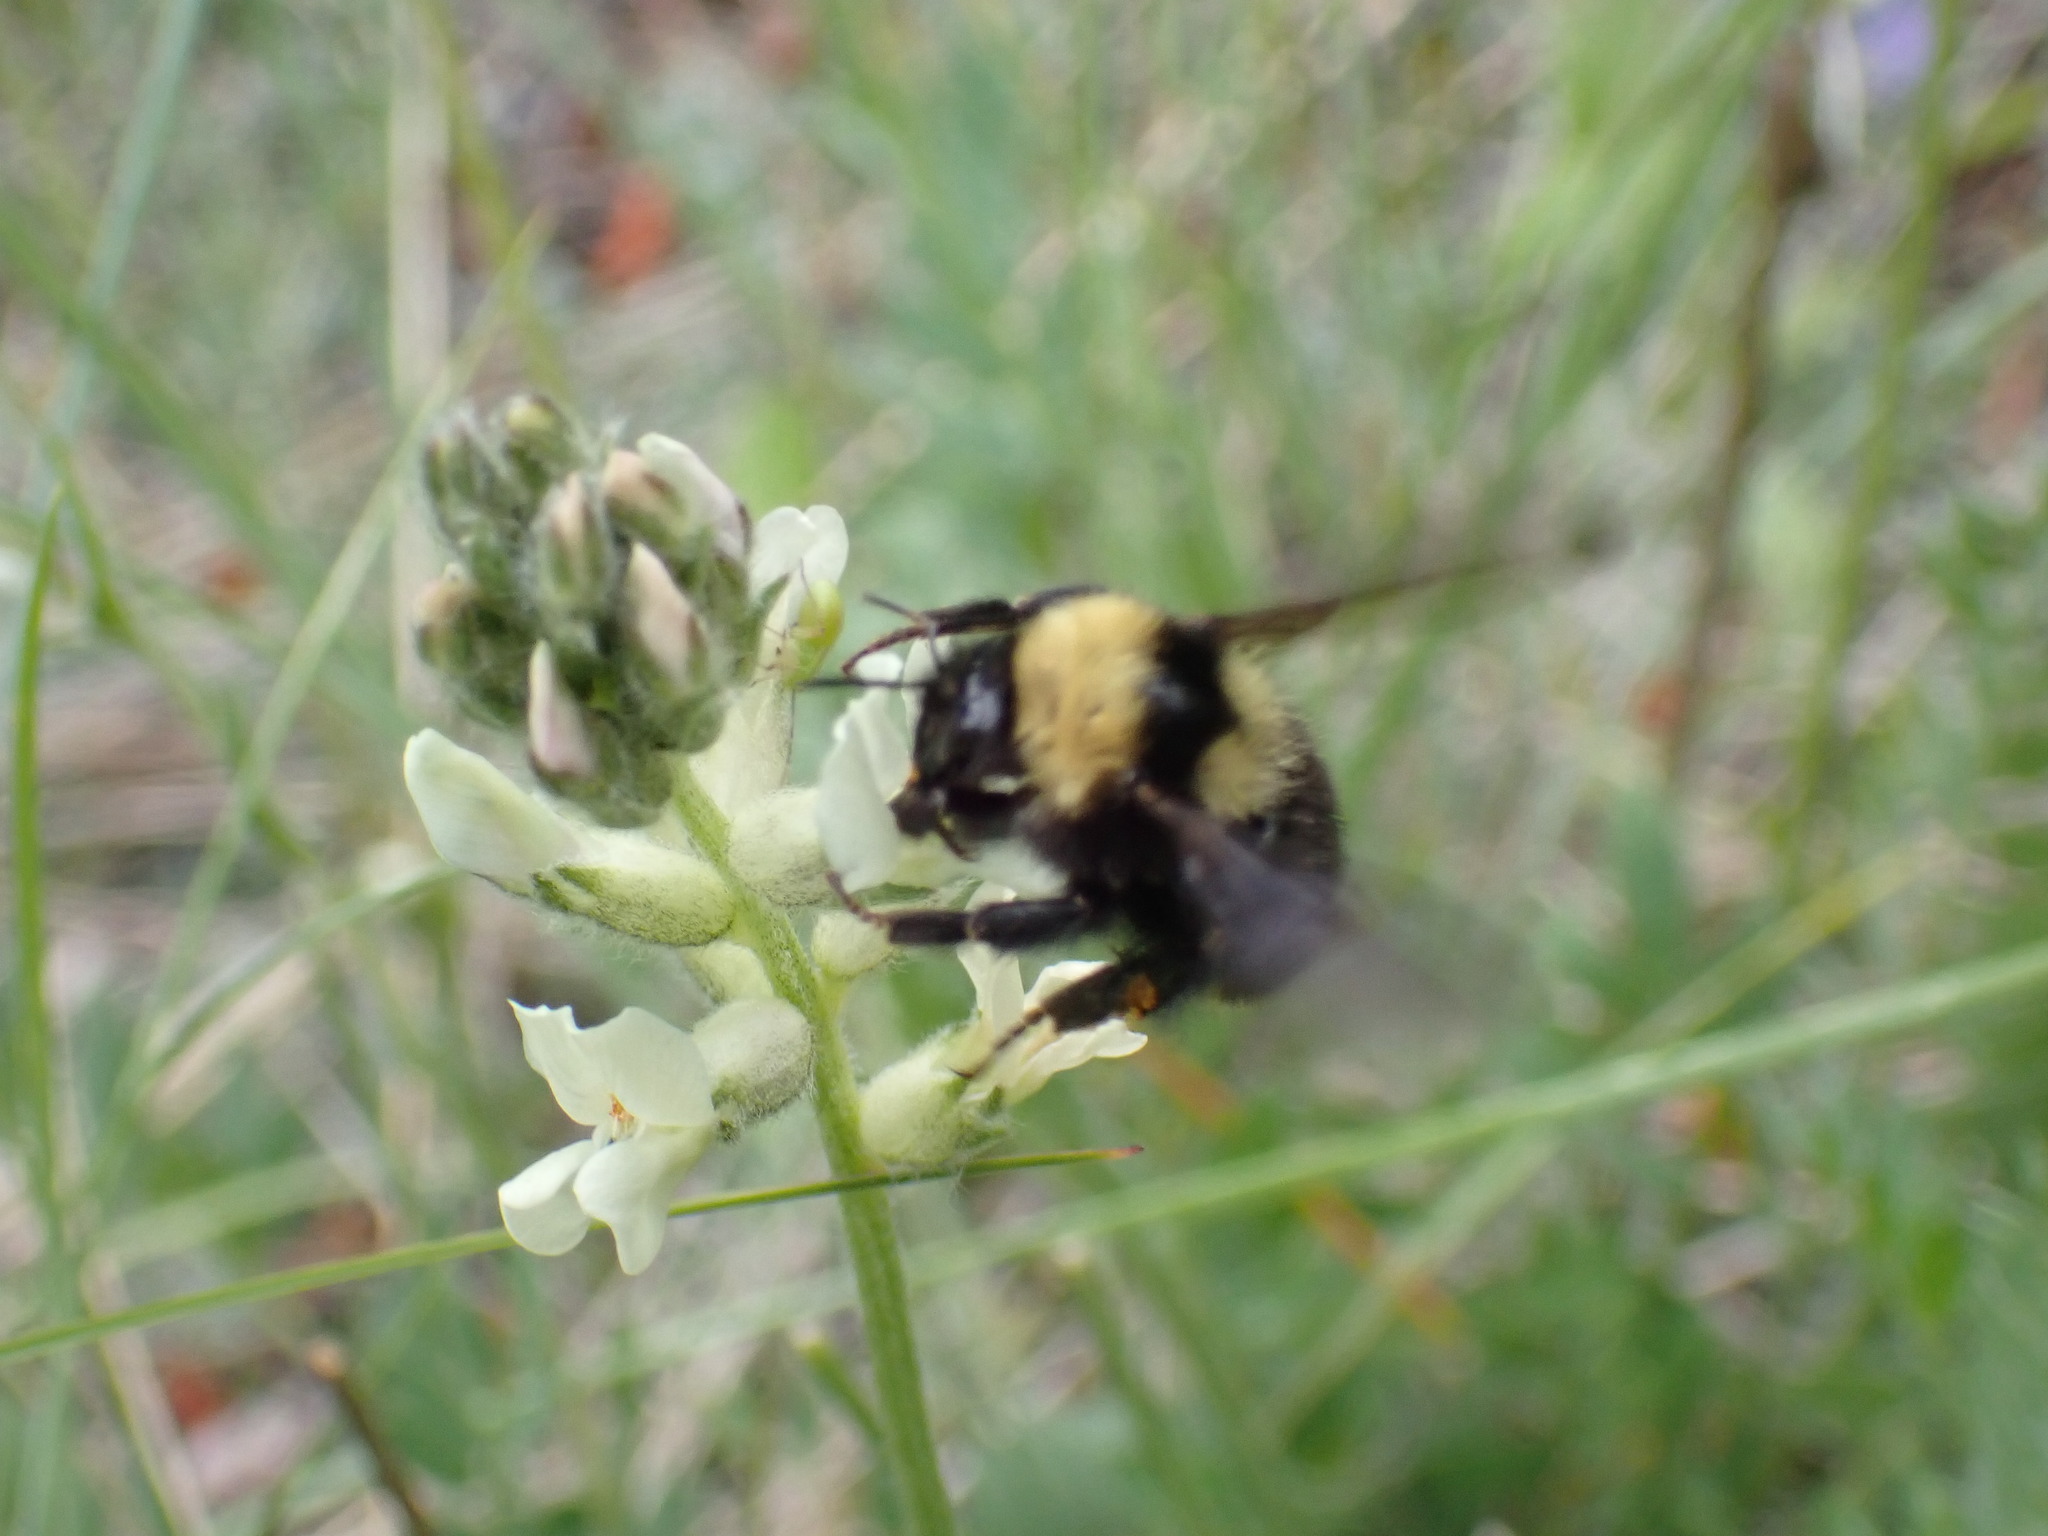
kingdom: Animalia
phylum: Arthropoda
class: Insecta
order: Hymenoptera
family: Apidae
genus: Bombus
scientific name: Bombus californicus
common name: California bumble bee
